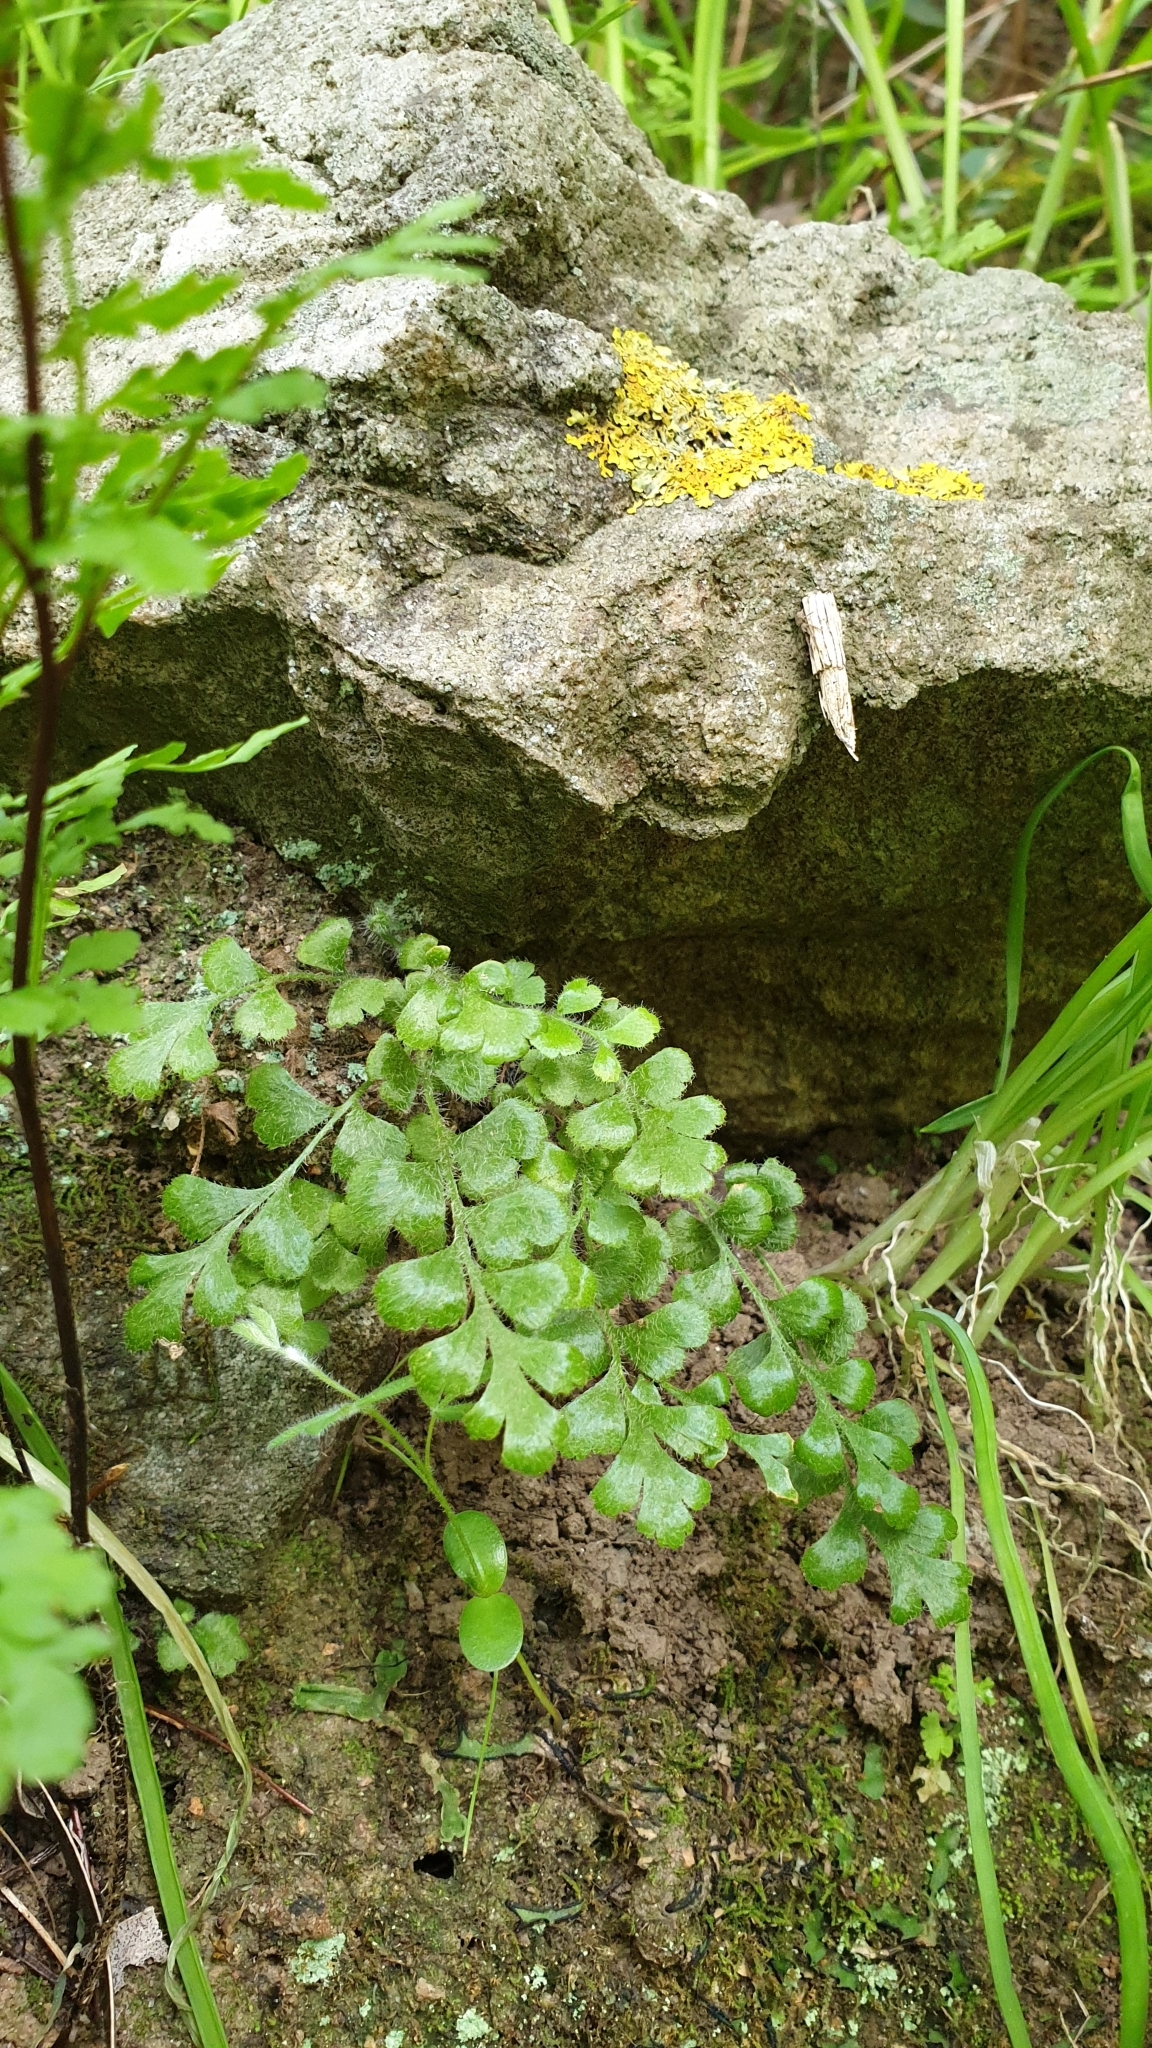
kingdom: Plantae
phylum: Tracheophyta
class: Polypodiopsida
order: Polypodiales
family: Aspleniaceae
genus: Asplenium
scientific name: Asplenium subglandulosum
